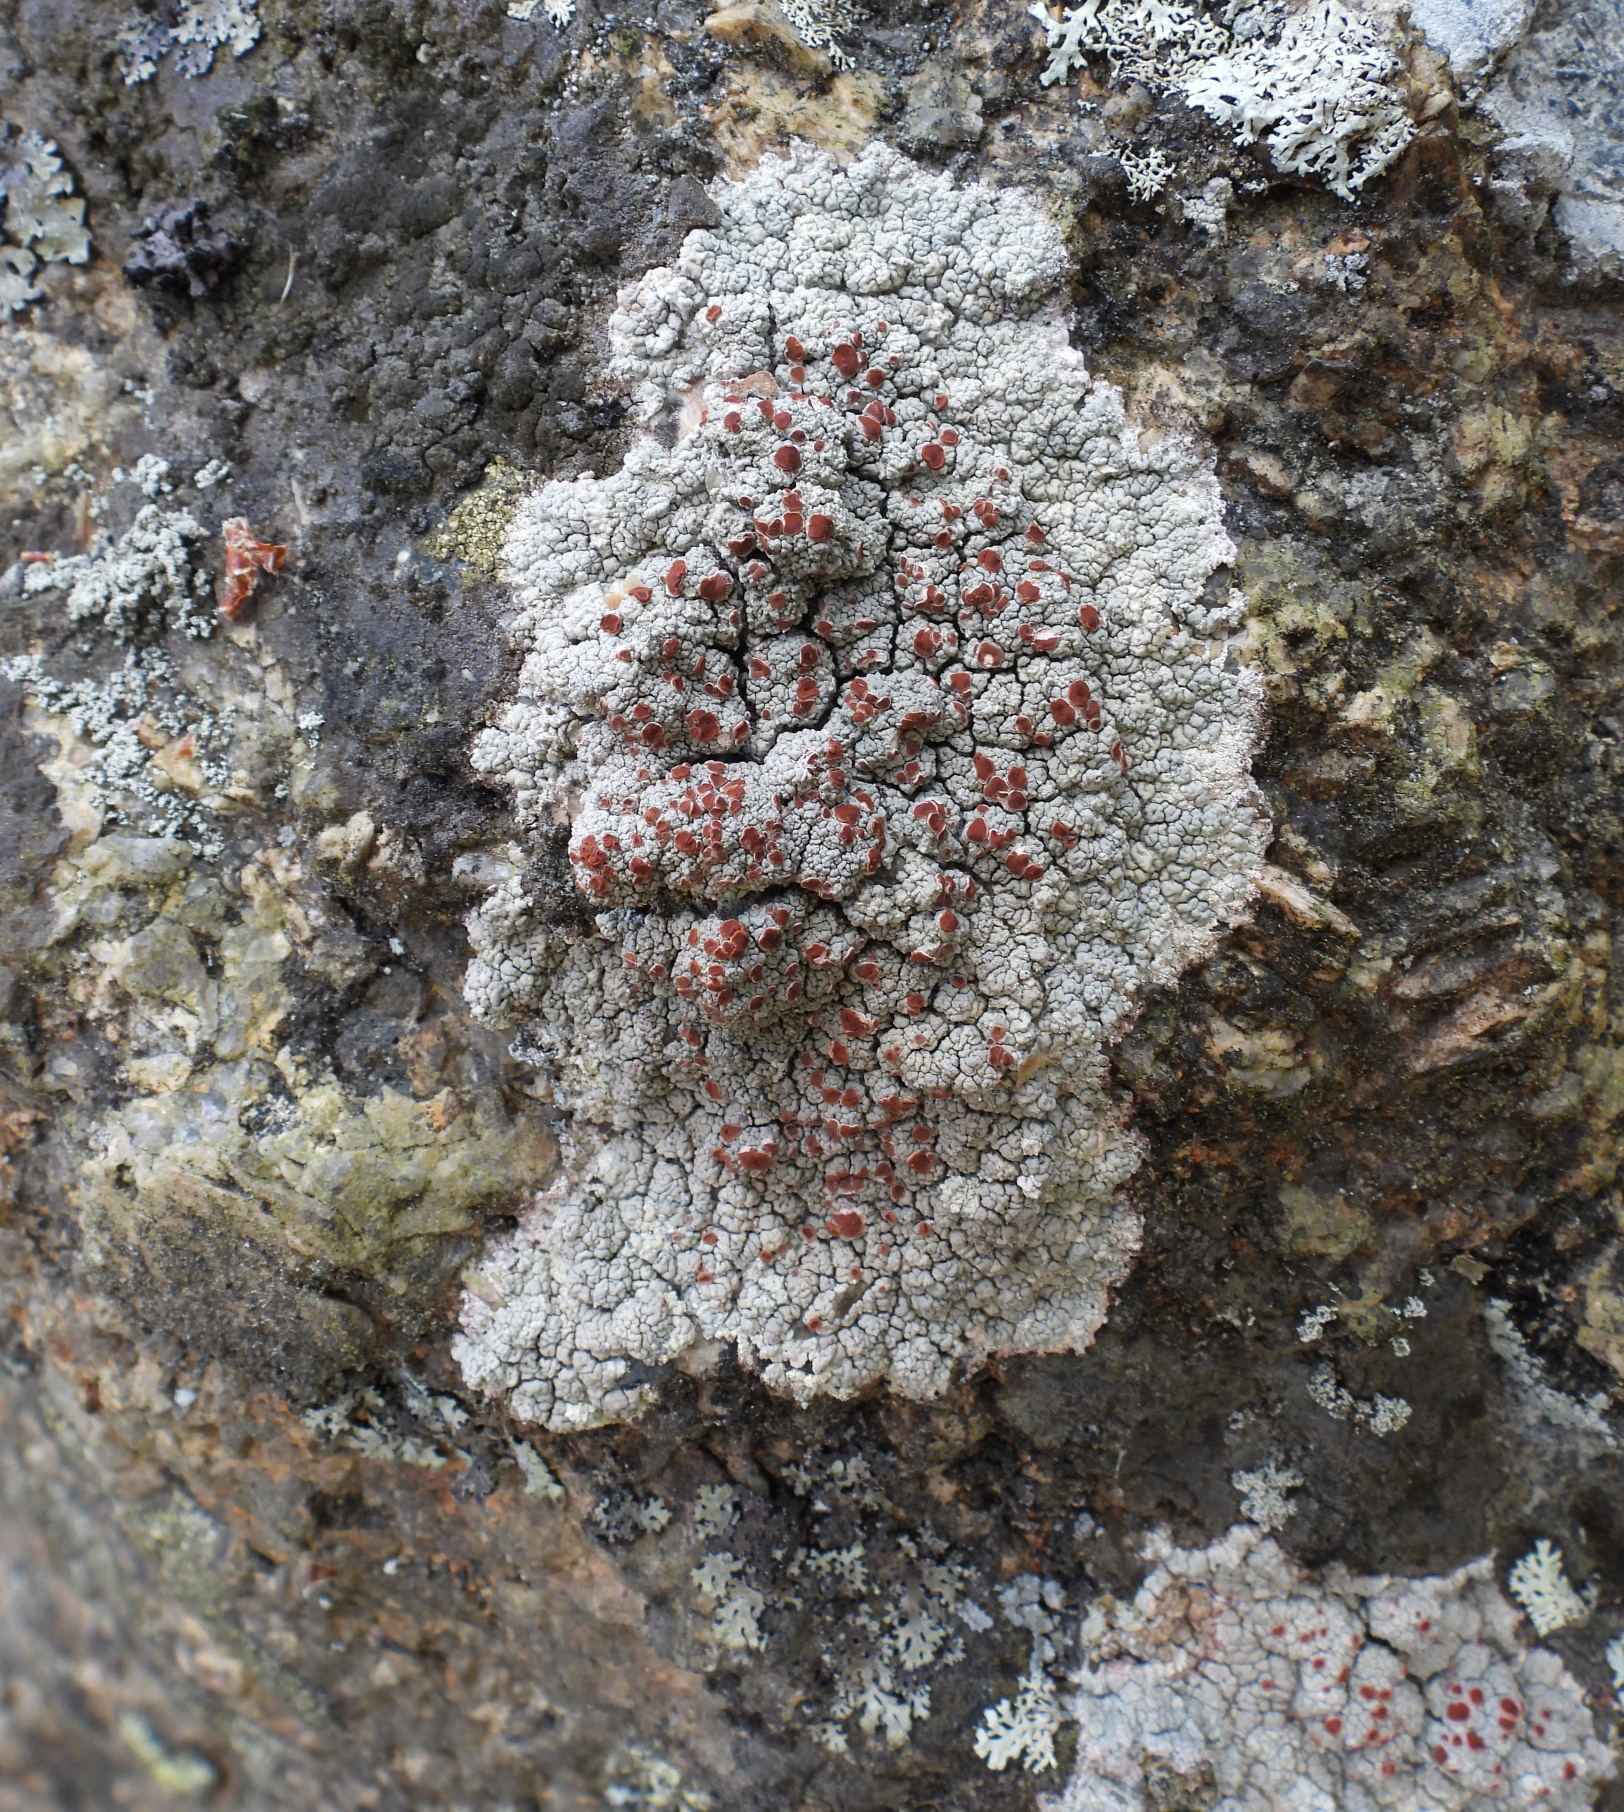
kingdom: Fungi
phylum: Ascomycota
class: Lecanoromycetes
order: Umbilicariales
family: Ophioparmaceae
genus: Ophioparma
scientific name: Ophioparma ventosa
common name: Blood-spot
